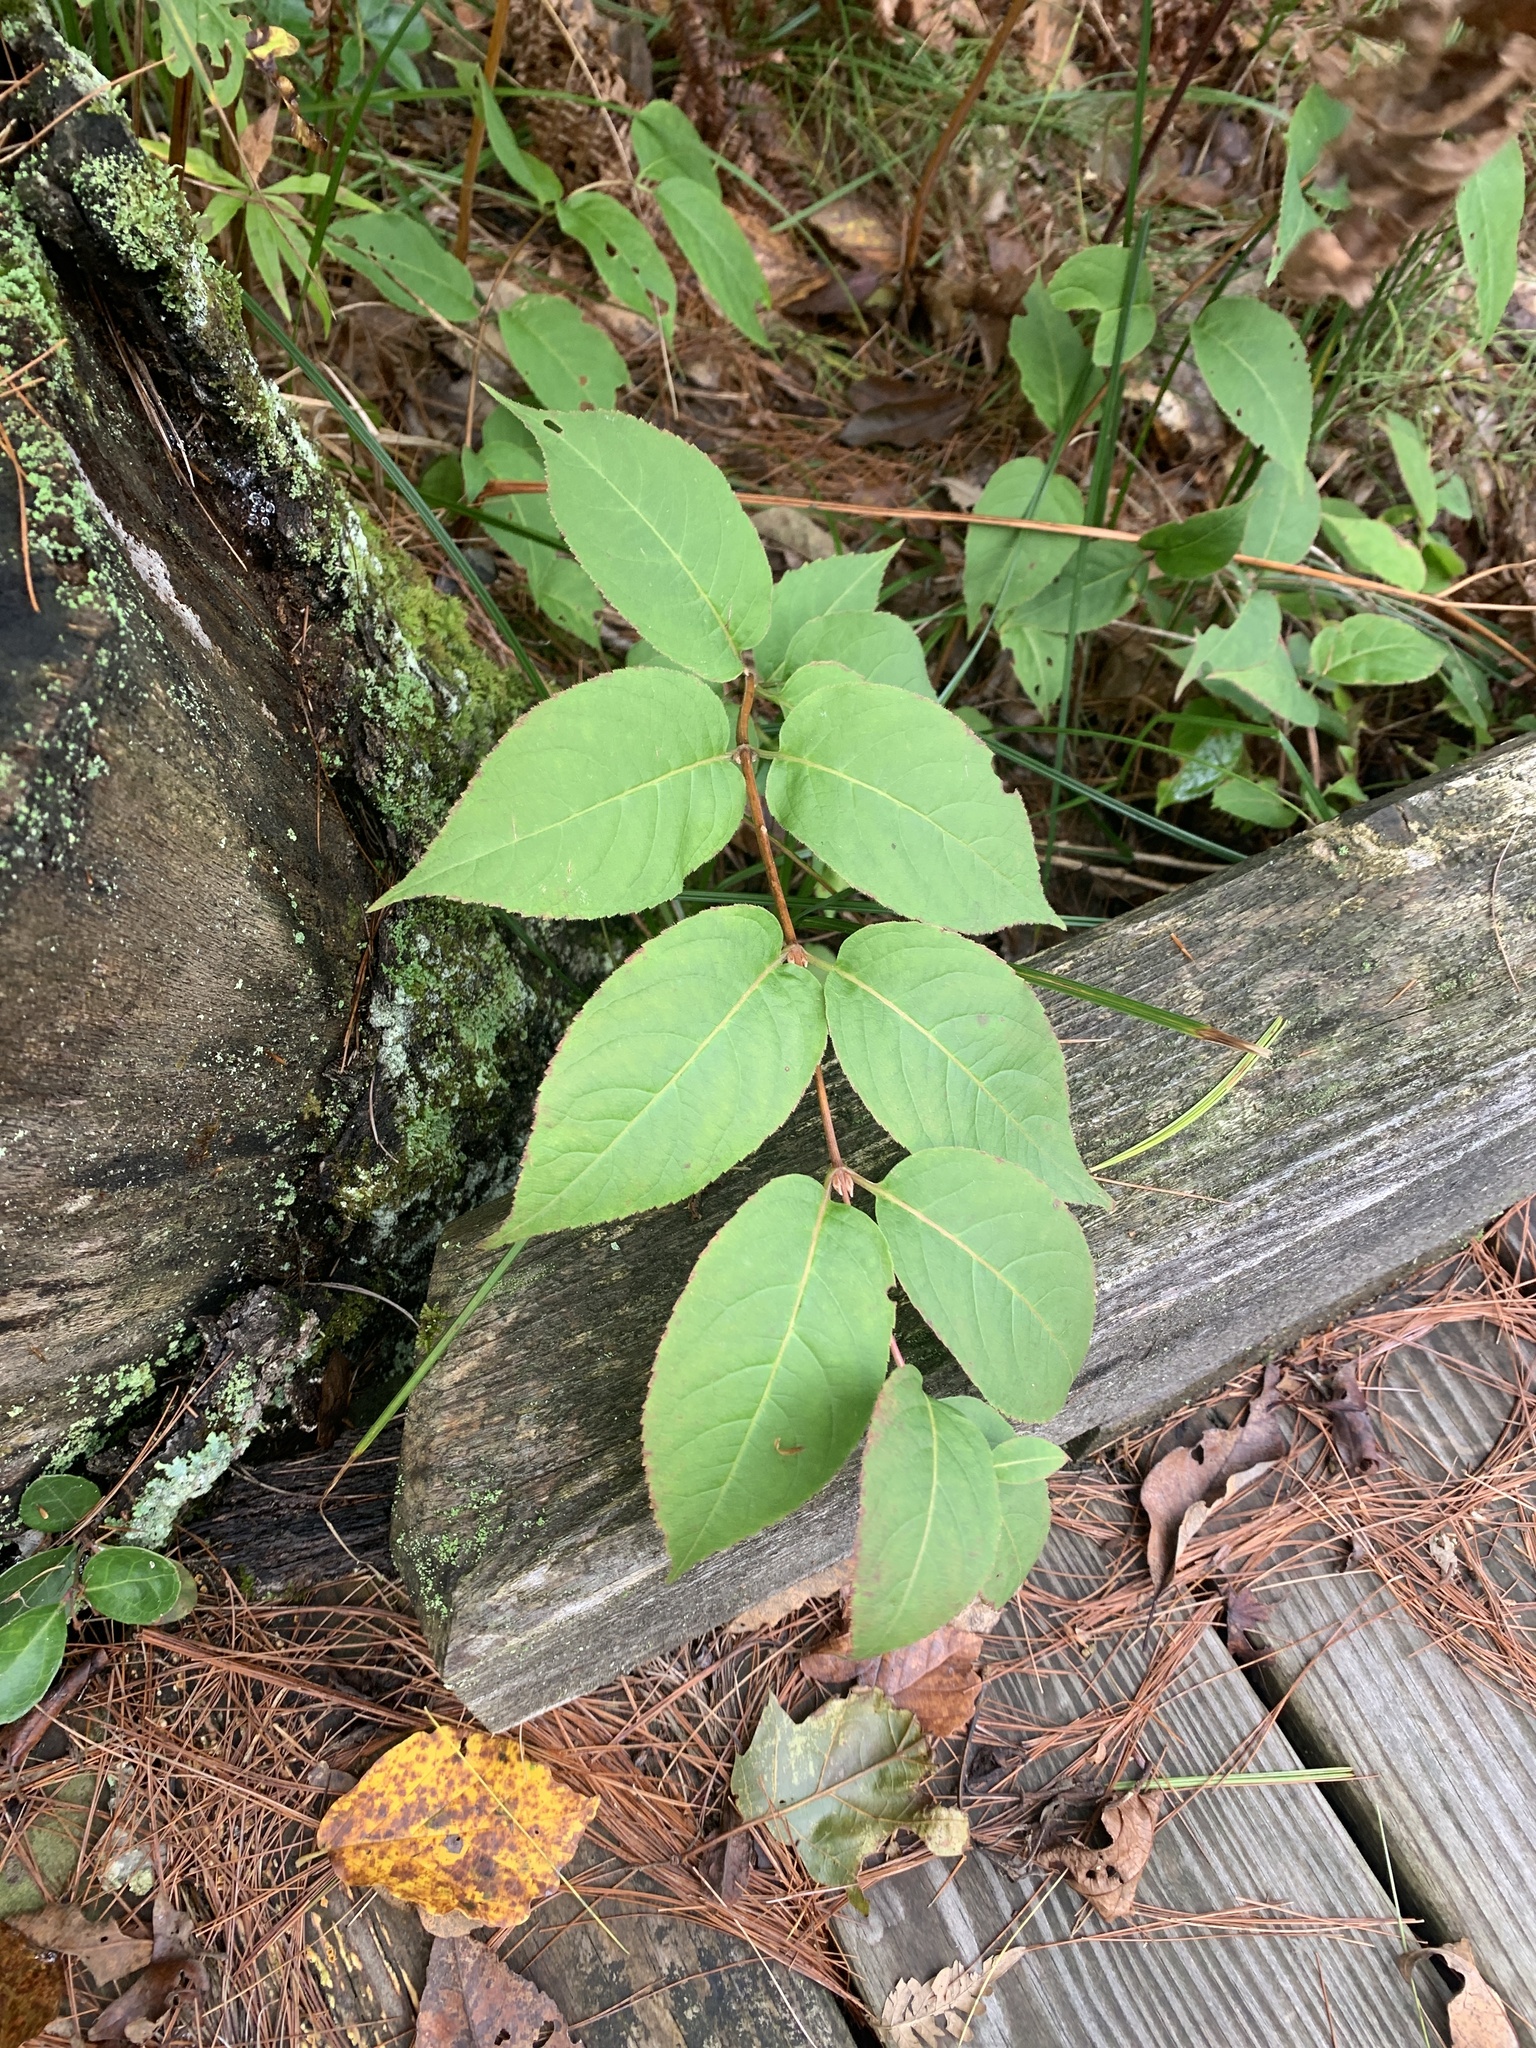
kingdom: Plantae
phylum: Tracheophyta
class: Magnoliopsida
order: Dipsacales
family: Caprifoliaceae
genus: Diervilla
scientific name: Diervilla lonicera
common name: Bush-honeysuckle
